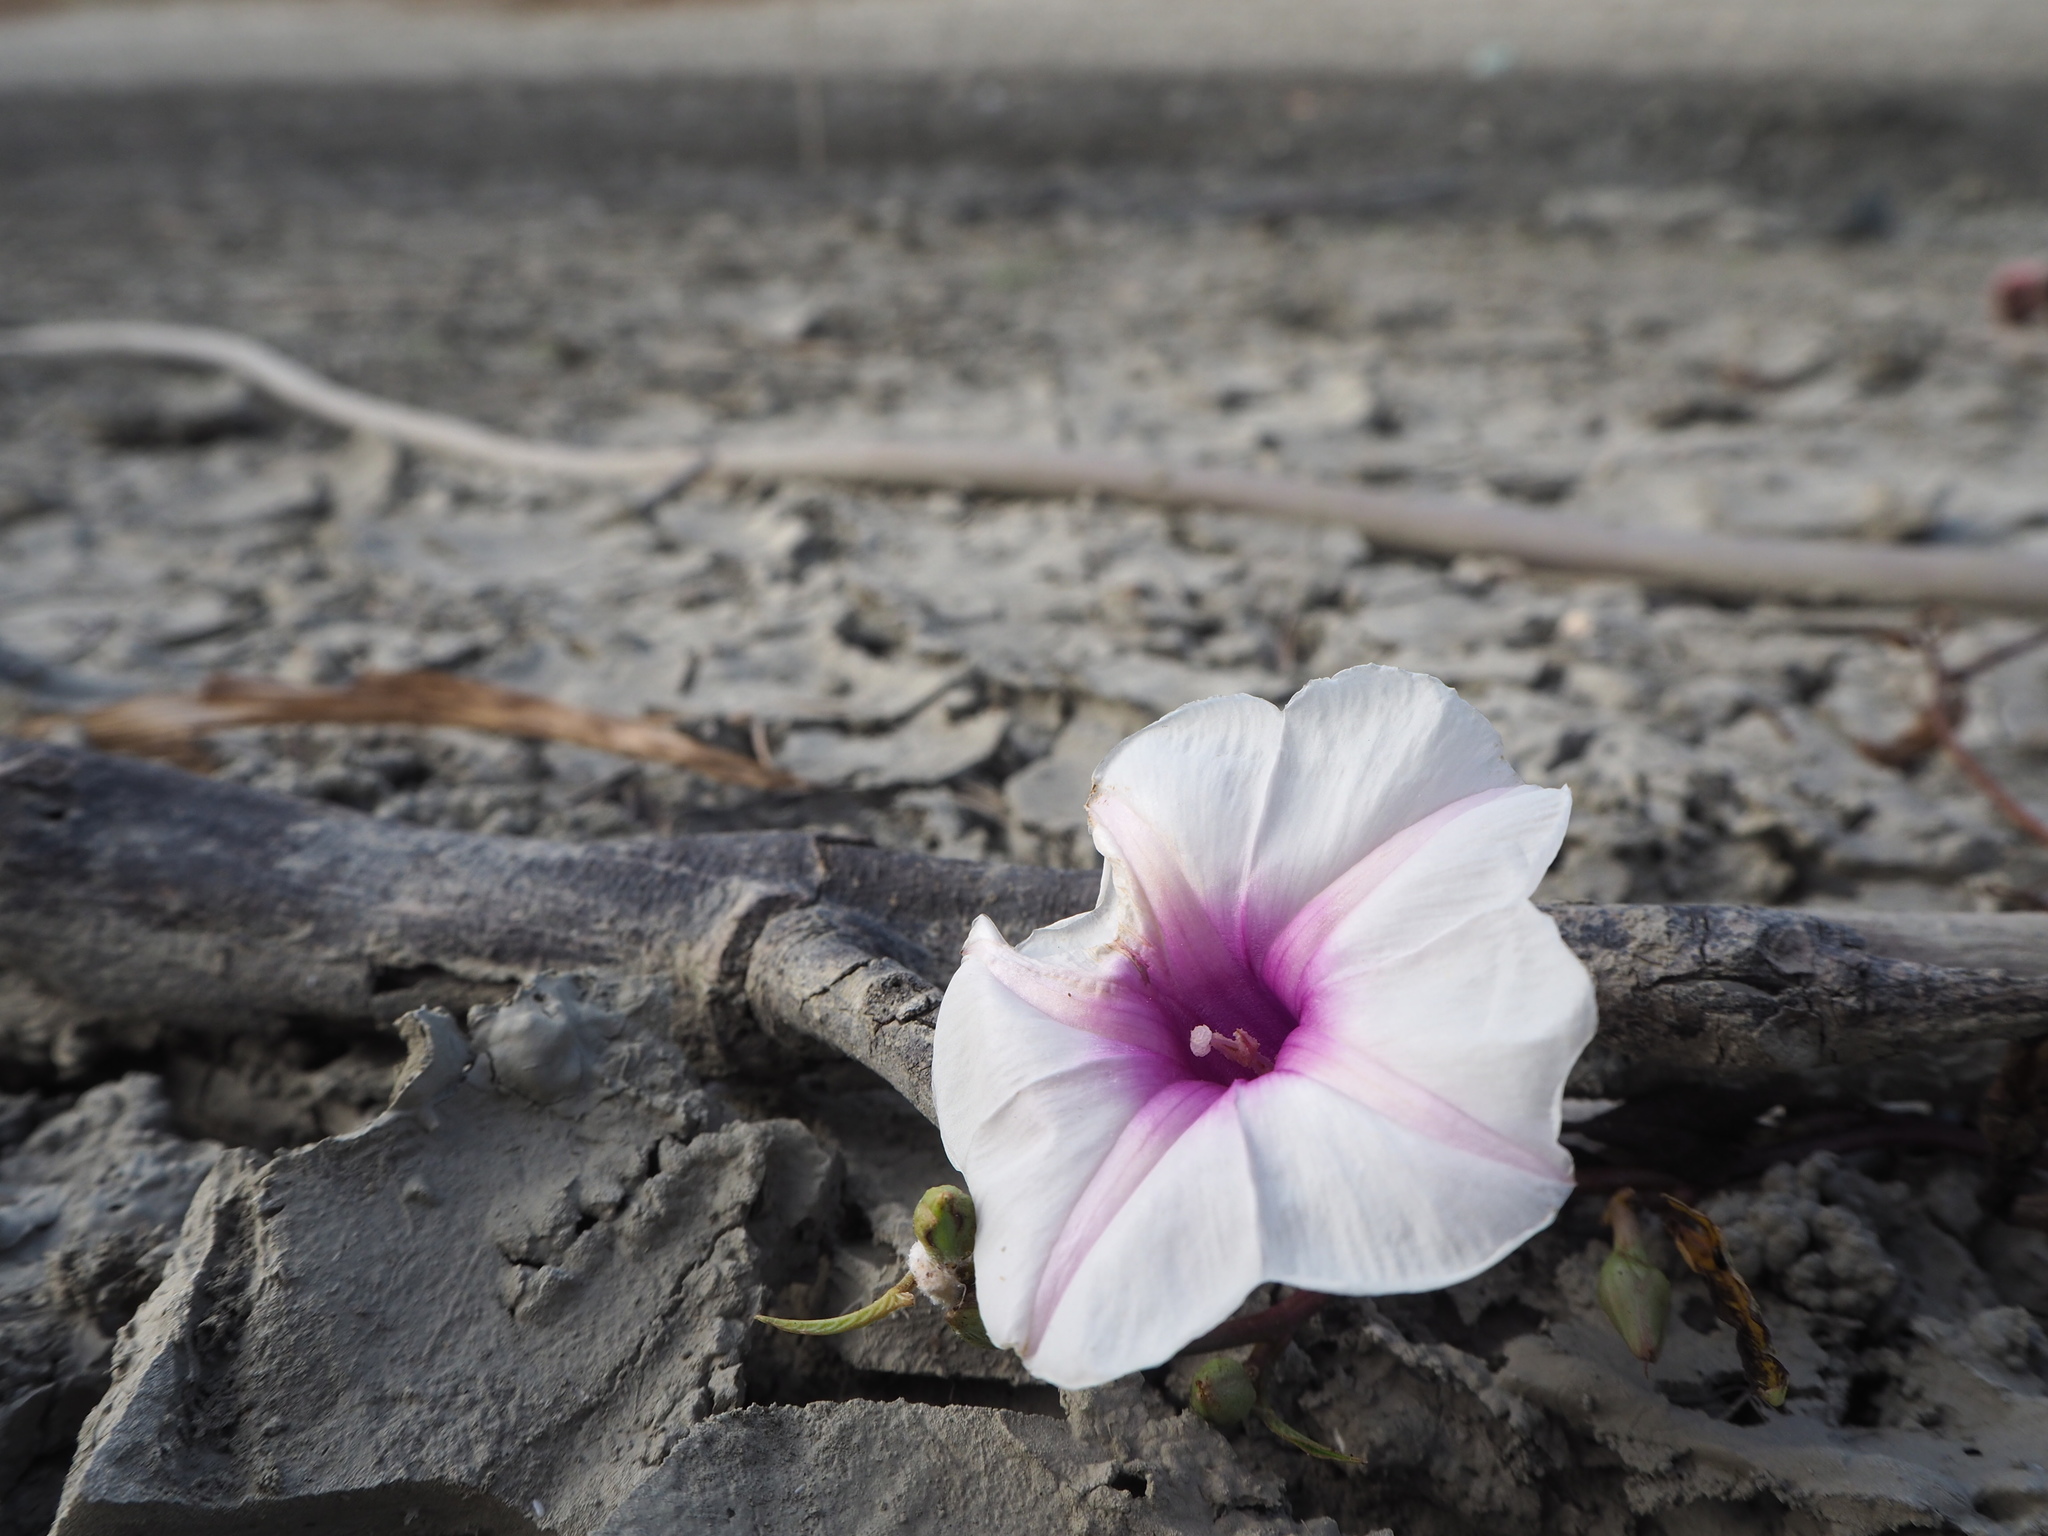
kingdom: Plantae
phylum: Tracheophyta
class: Magnoliopsida
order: Solanales
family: Convolvulaceae
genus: Ipomoea
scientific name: Ipomoea aquatica
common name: Swamp morning-glory
